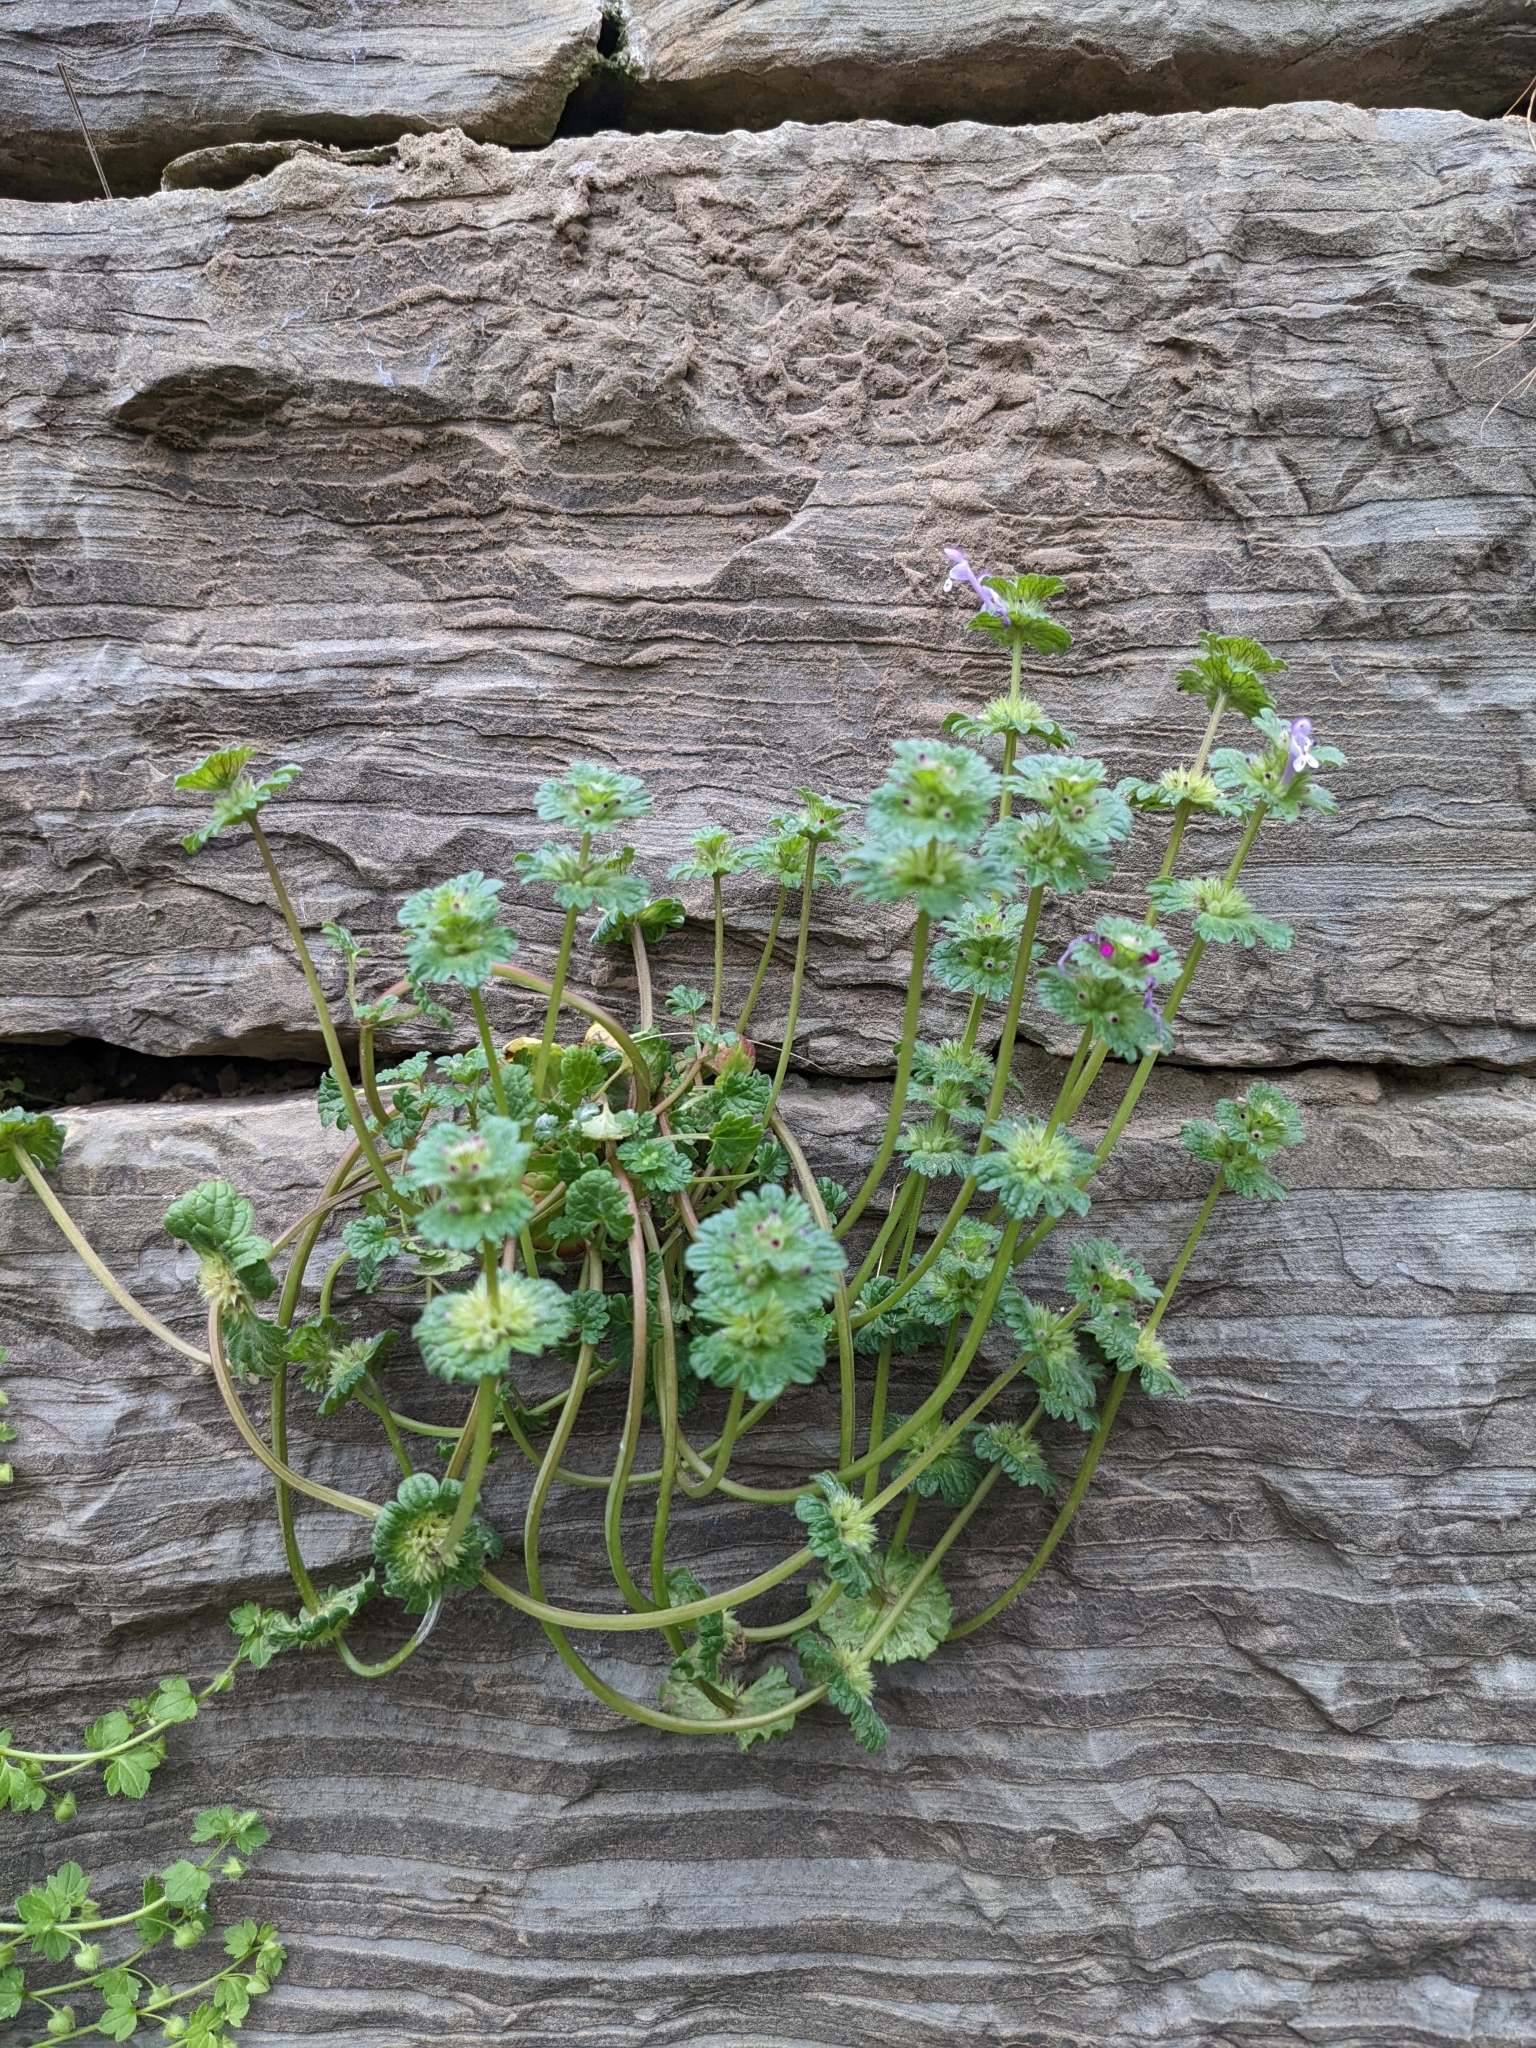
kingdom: Plantae
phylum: Tracheophyta
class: Magnoliopsida
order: Lamiales
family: Lamiaceae
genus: Lamium
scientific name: Lamium amplexicaule
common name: Henbit dead-nettle
